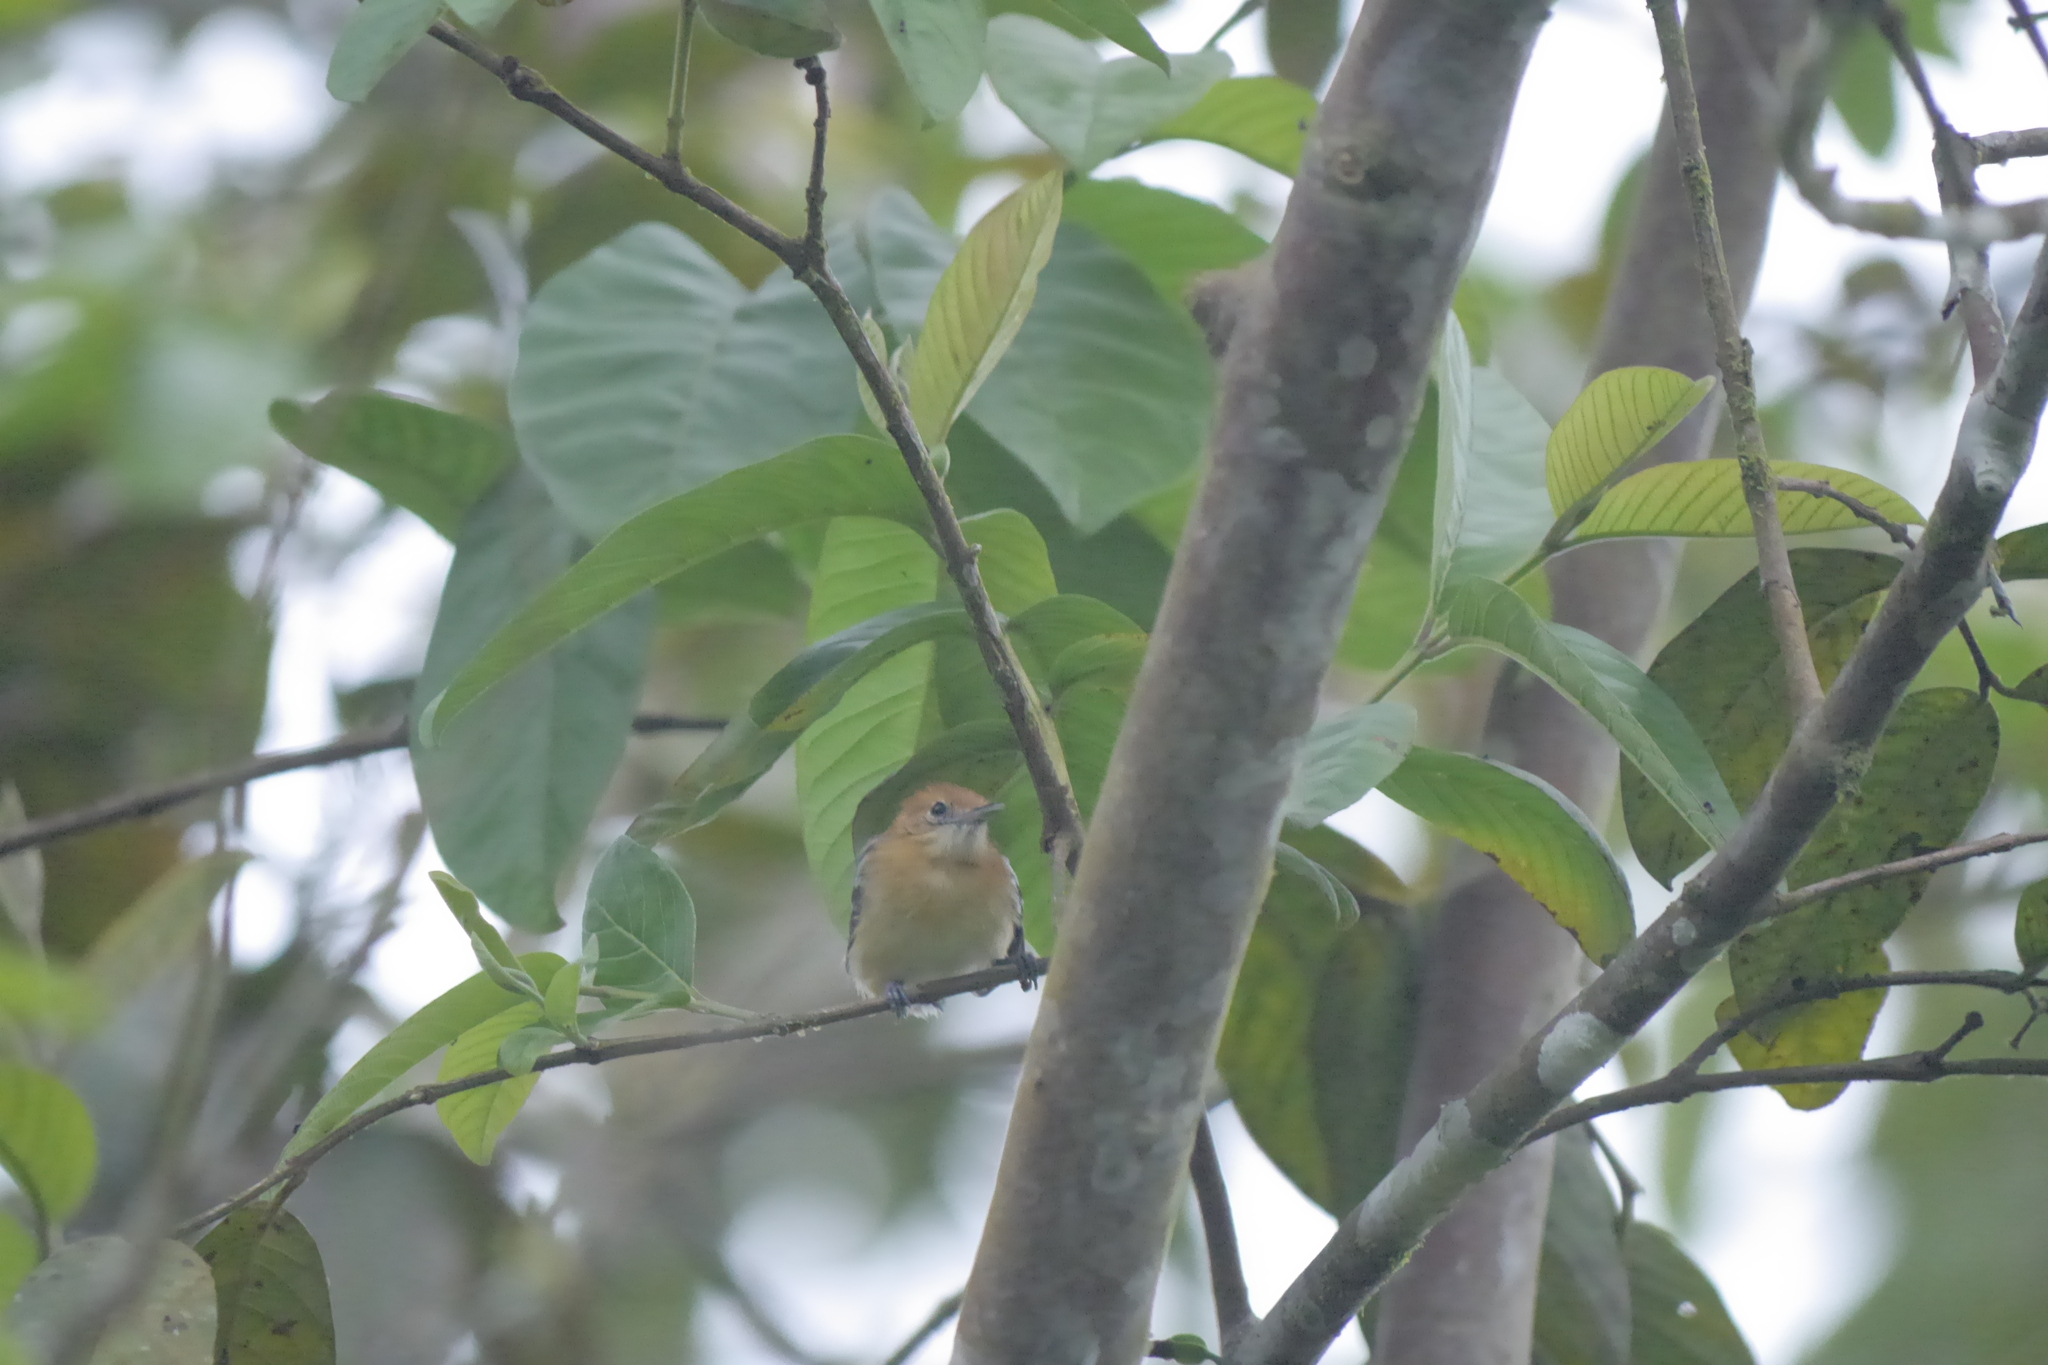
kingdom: Animalia
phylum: Chordata
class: Aves
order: Passeriformes
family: Thamnophilidae
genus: Myrmotherula
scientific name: Myrmotherula pacifica
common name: Pacific antwren
